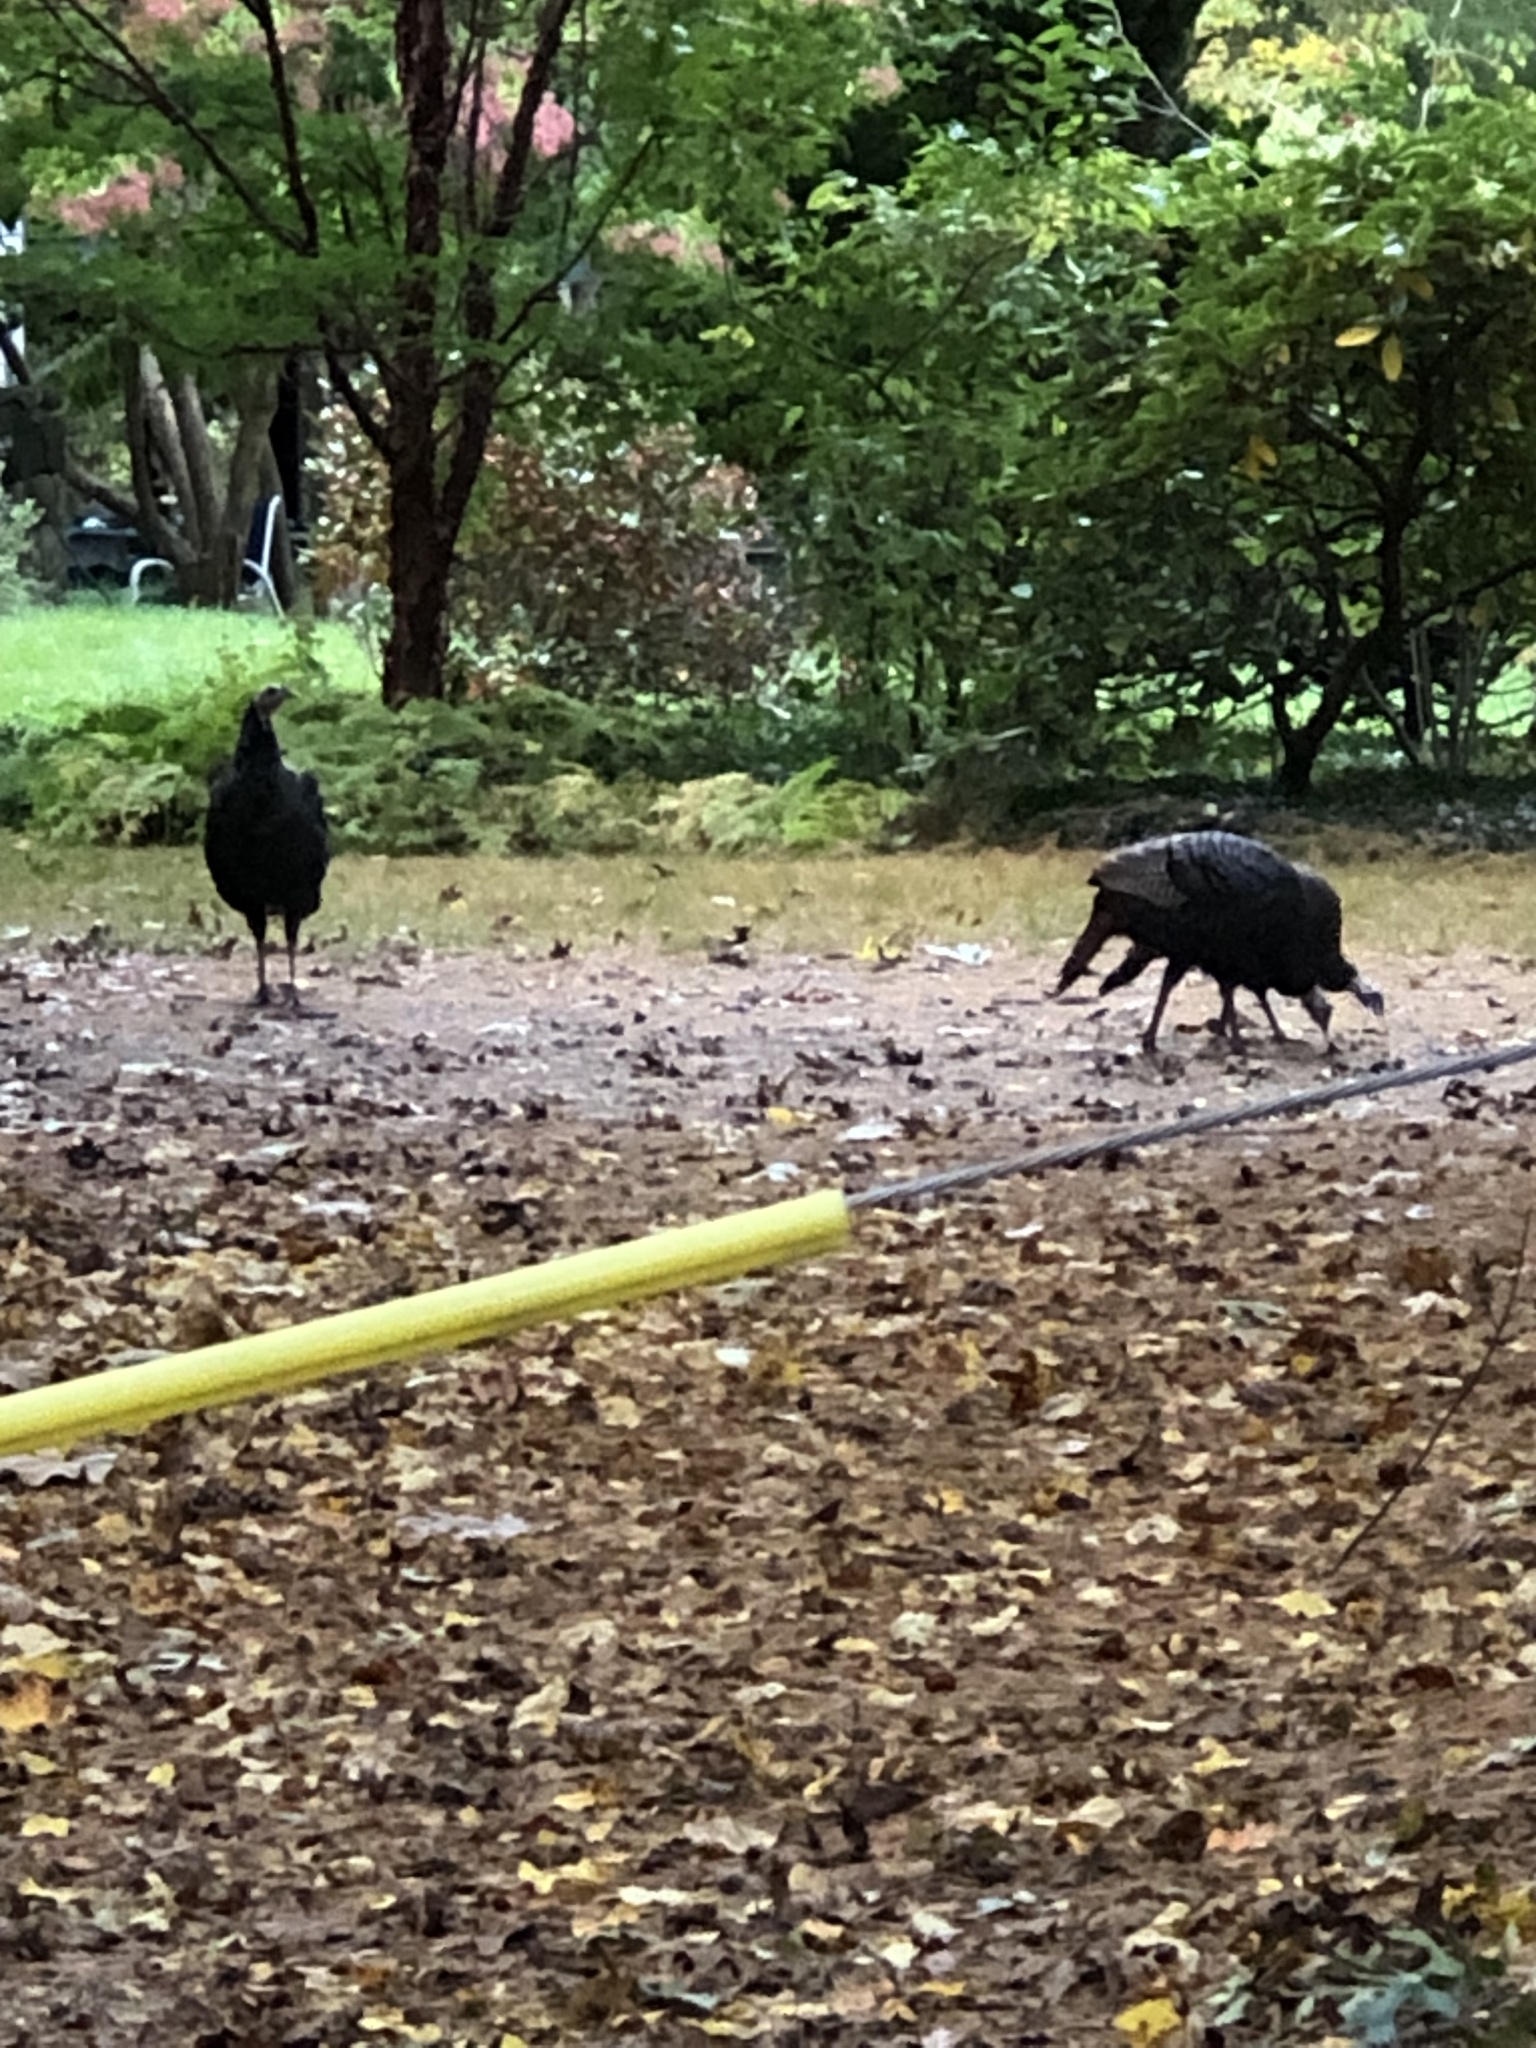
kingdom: Animalia
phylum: Chordata
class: Aves
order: Galliformes
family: Phasianidae
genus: Meleagris
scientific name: Meleagris gallopavo
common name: Wild turkey
